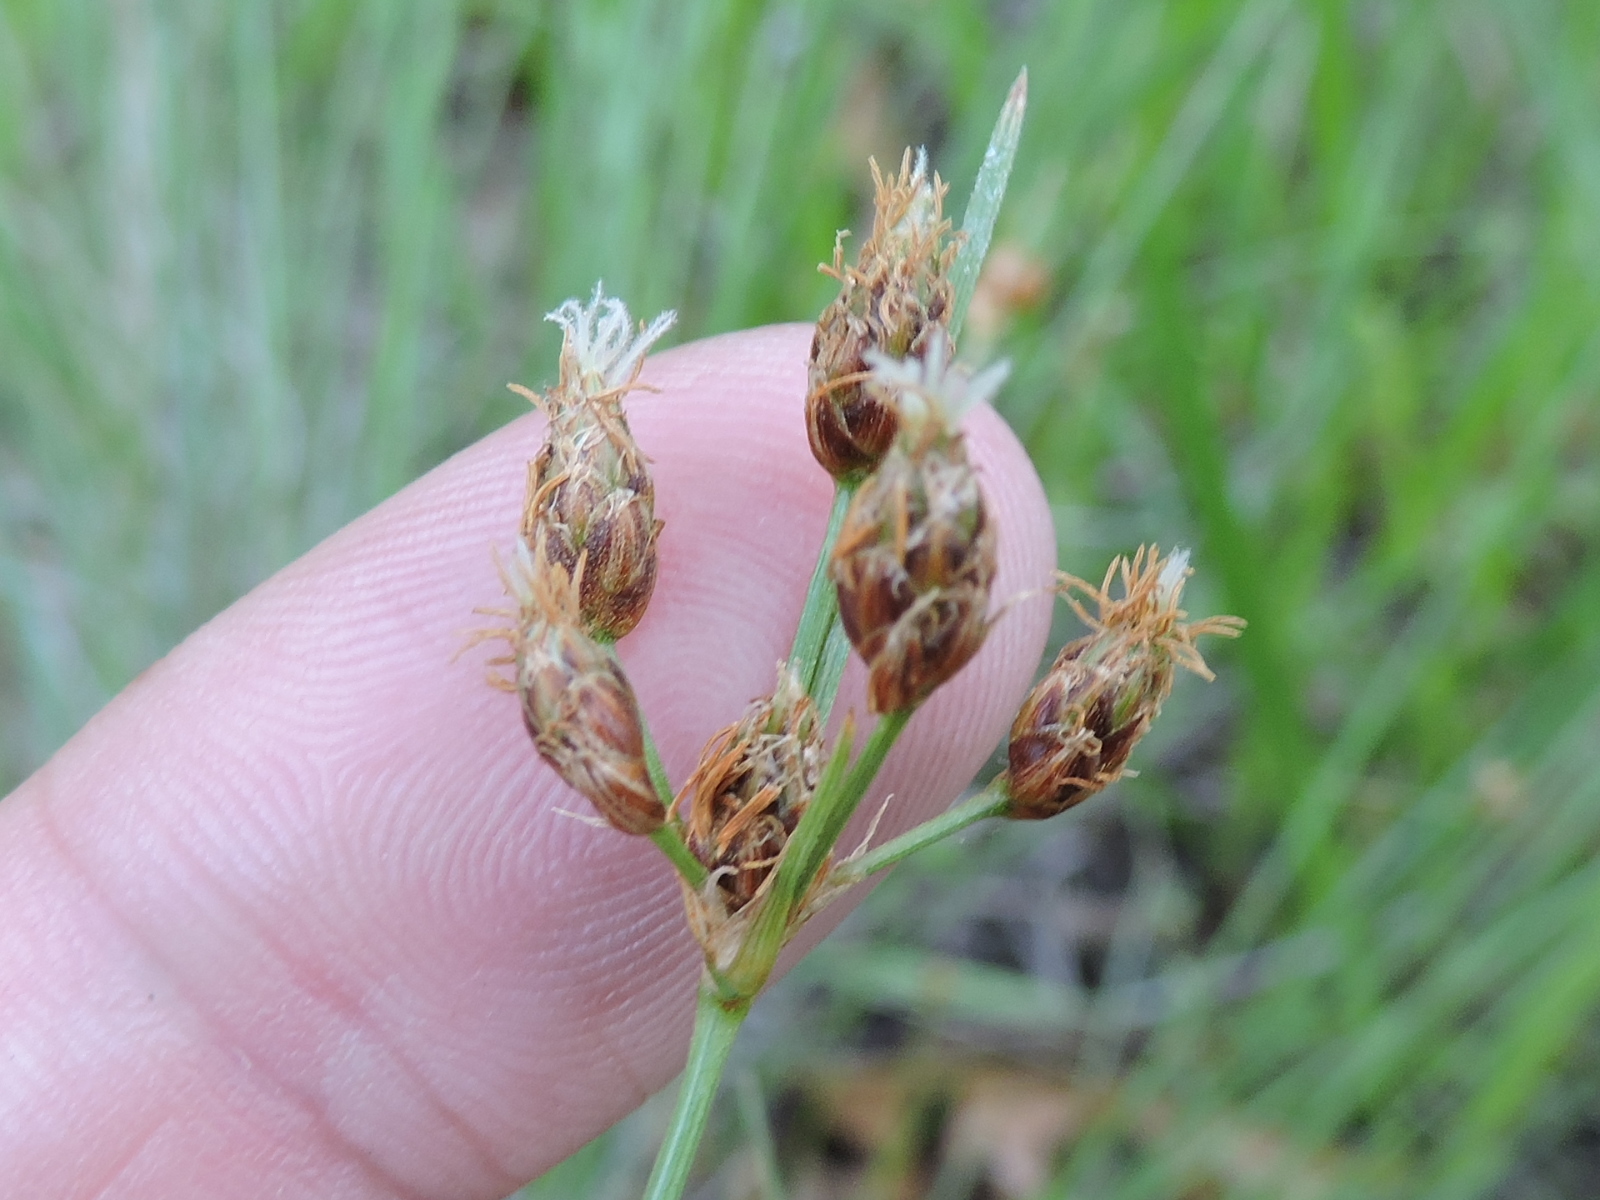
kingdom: Plantae
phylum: Tracheophyta
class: Liliopsida
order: Poales
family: Cyperaceae
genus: Fimbristylis
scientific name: Fimbristylis puberula
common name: Hairy fimbristylis
